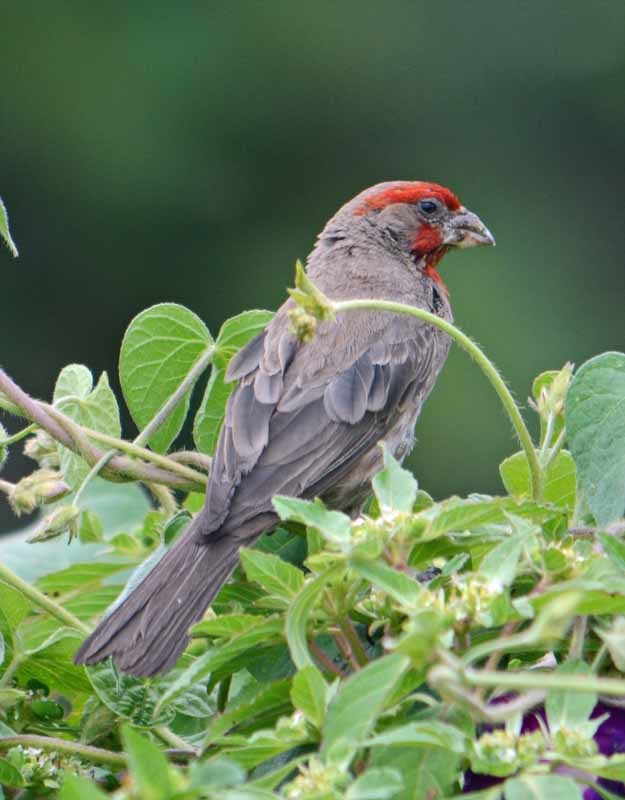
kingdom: Animalia
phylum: Chordata
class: Aves
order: Passeriformes
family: Fringillidae
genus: Haemorhous
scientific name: Haemorhous mexicanus
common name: House finch
